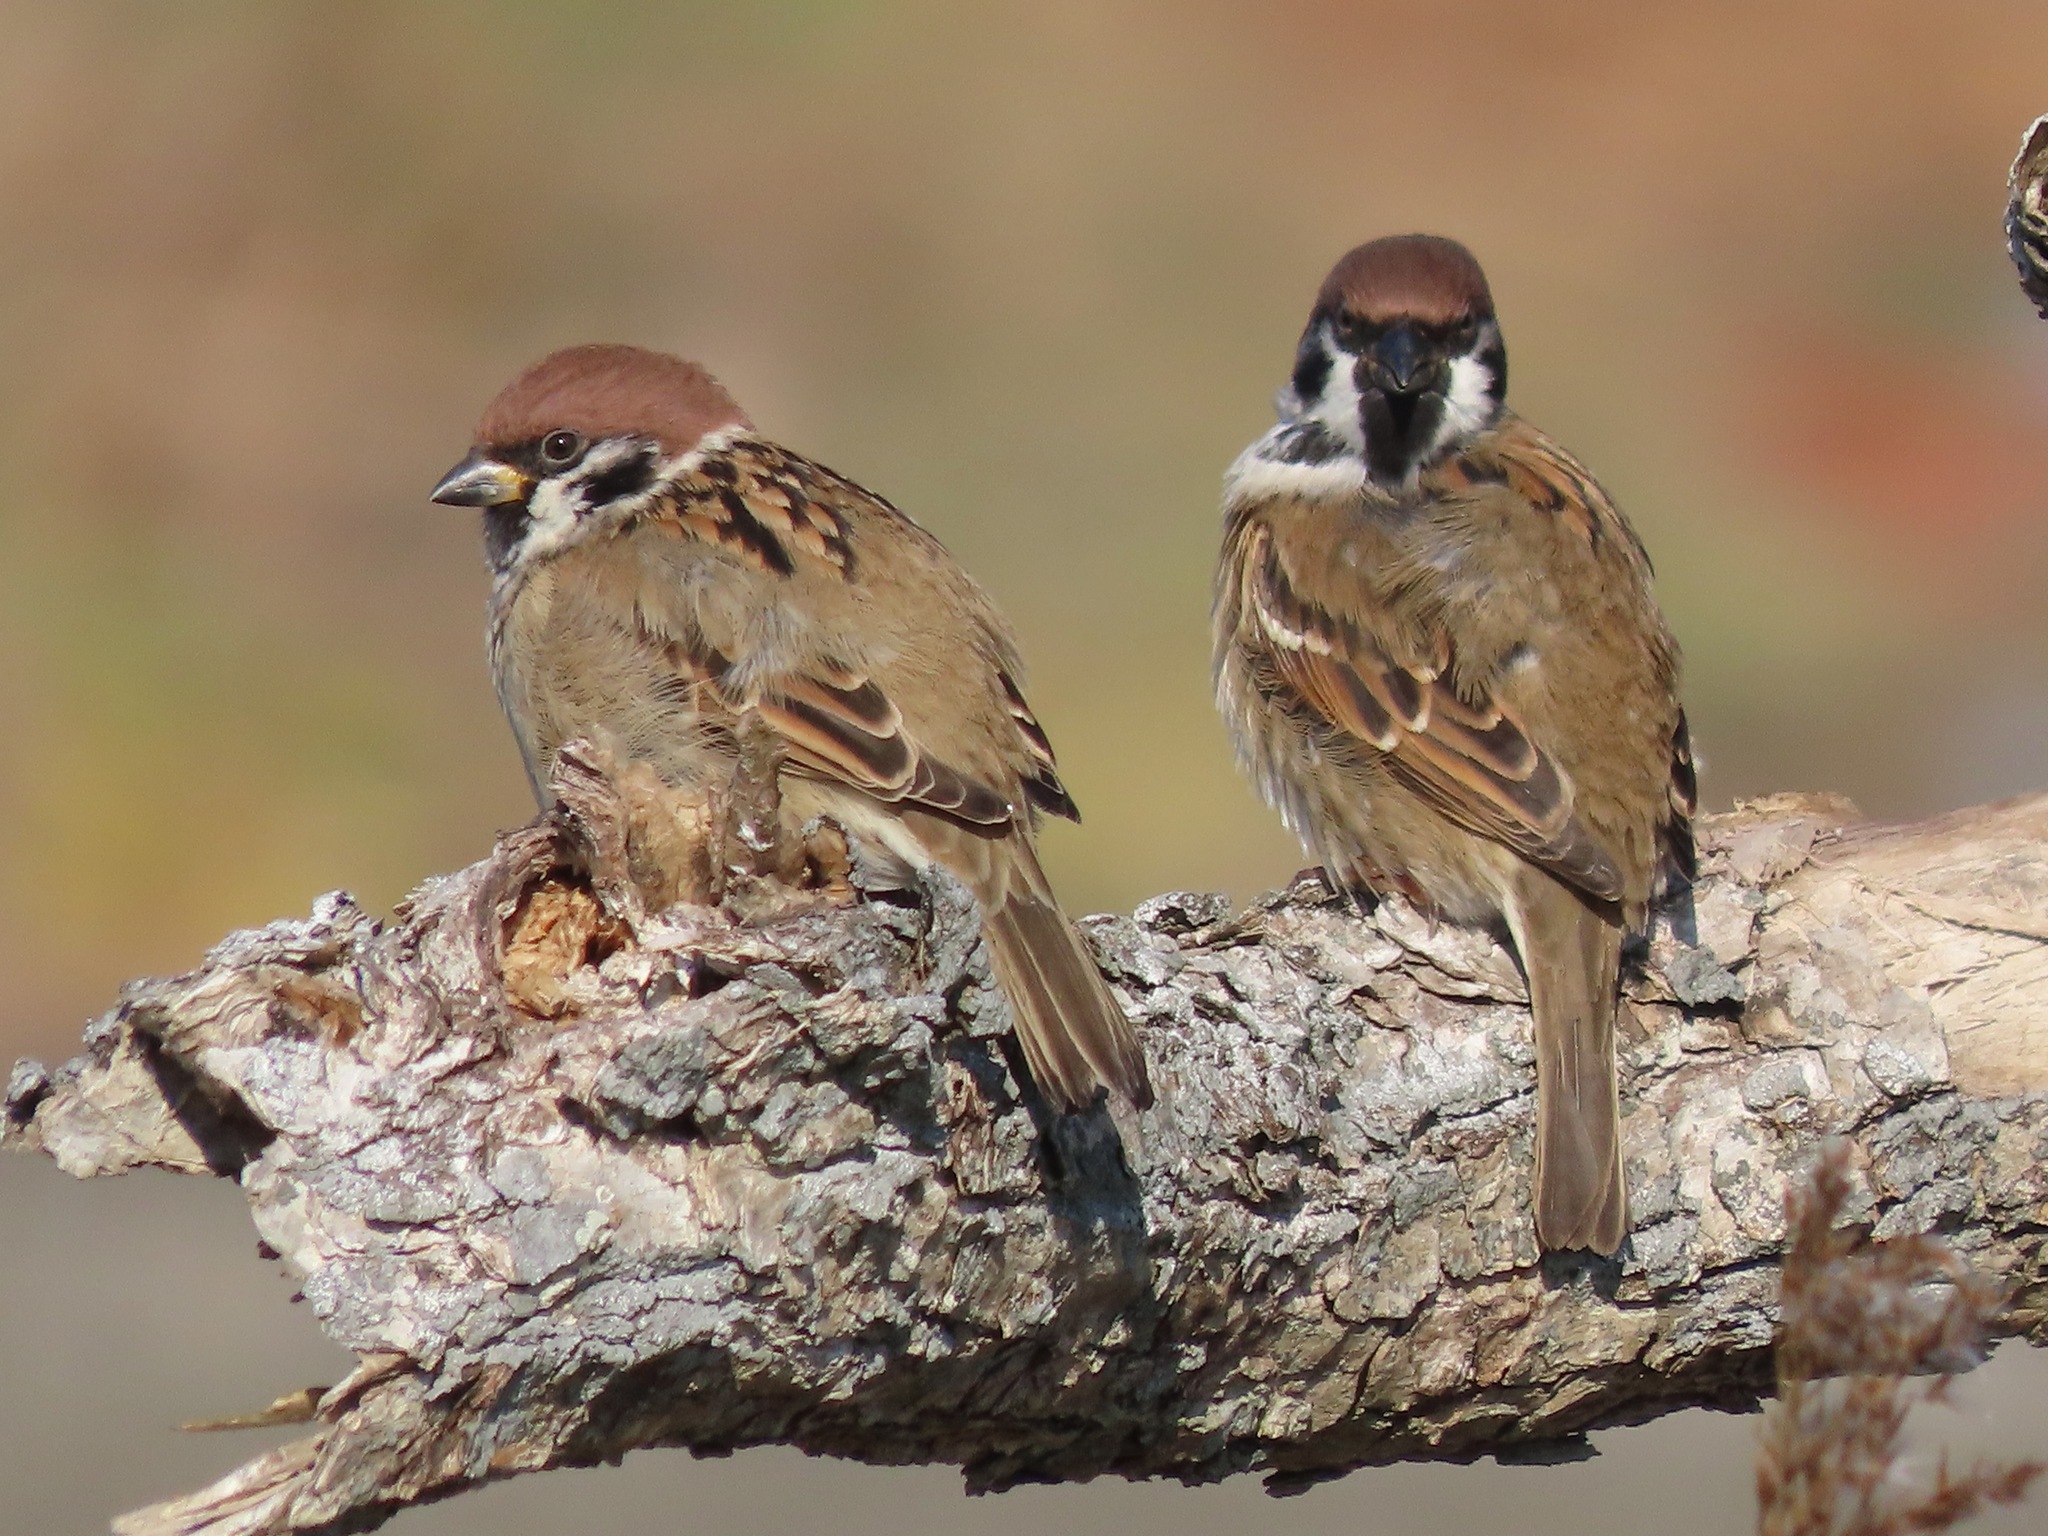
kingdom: Animalia
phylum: Chordata
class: Aves
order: Passeriformes
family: Passeridae
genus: Passer
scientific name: Passer montanus
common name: Eurasian tree sparrow
